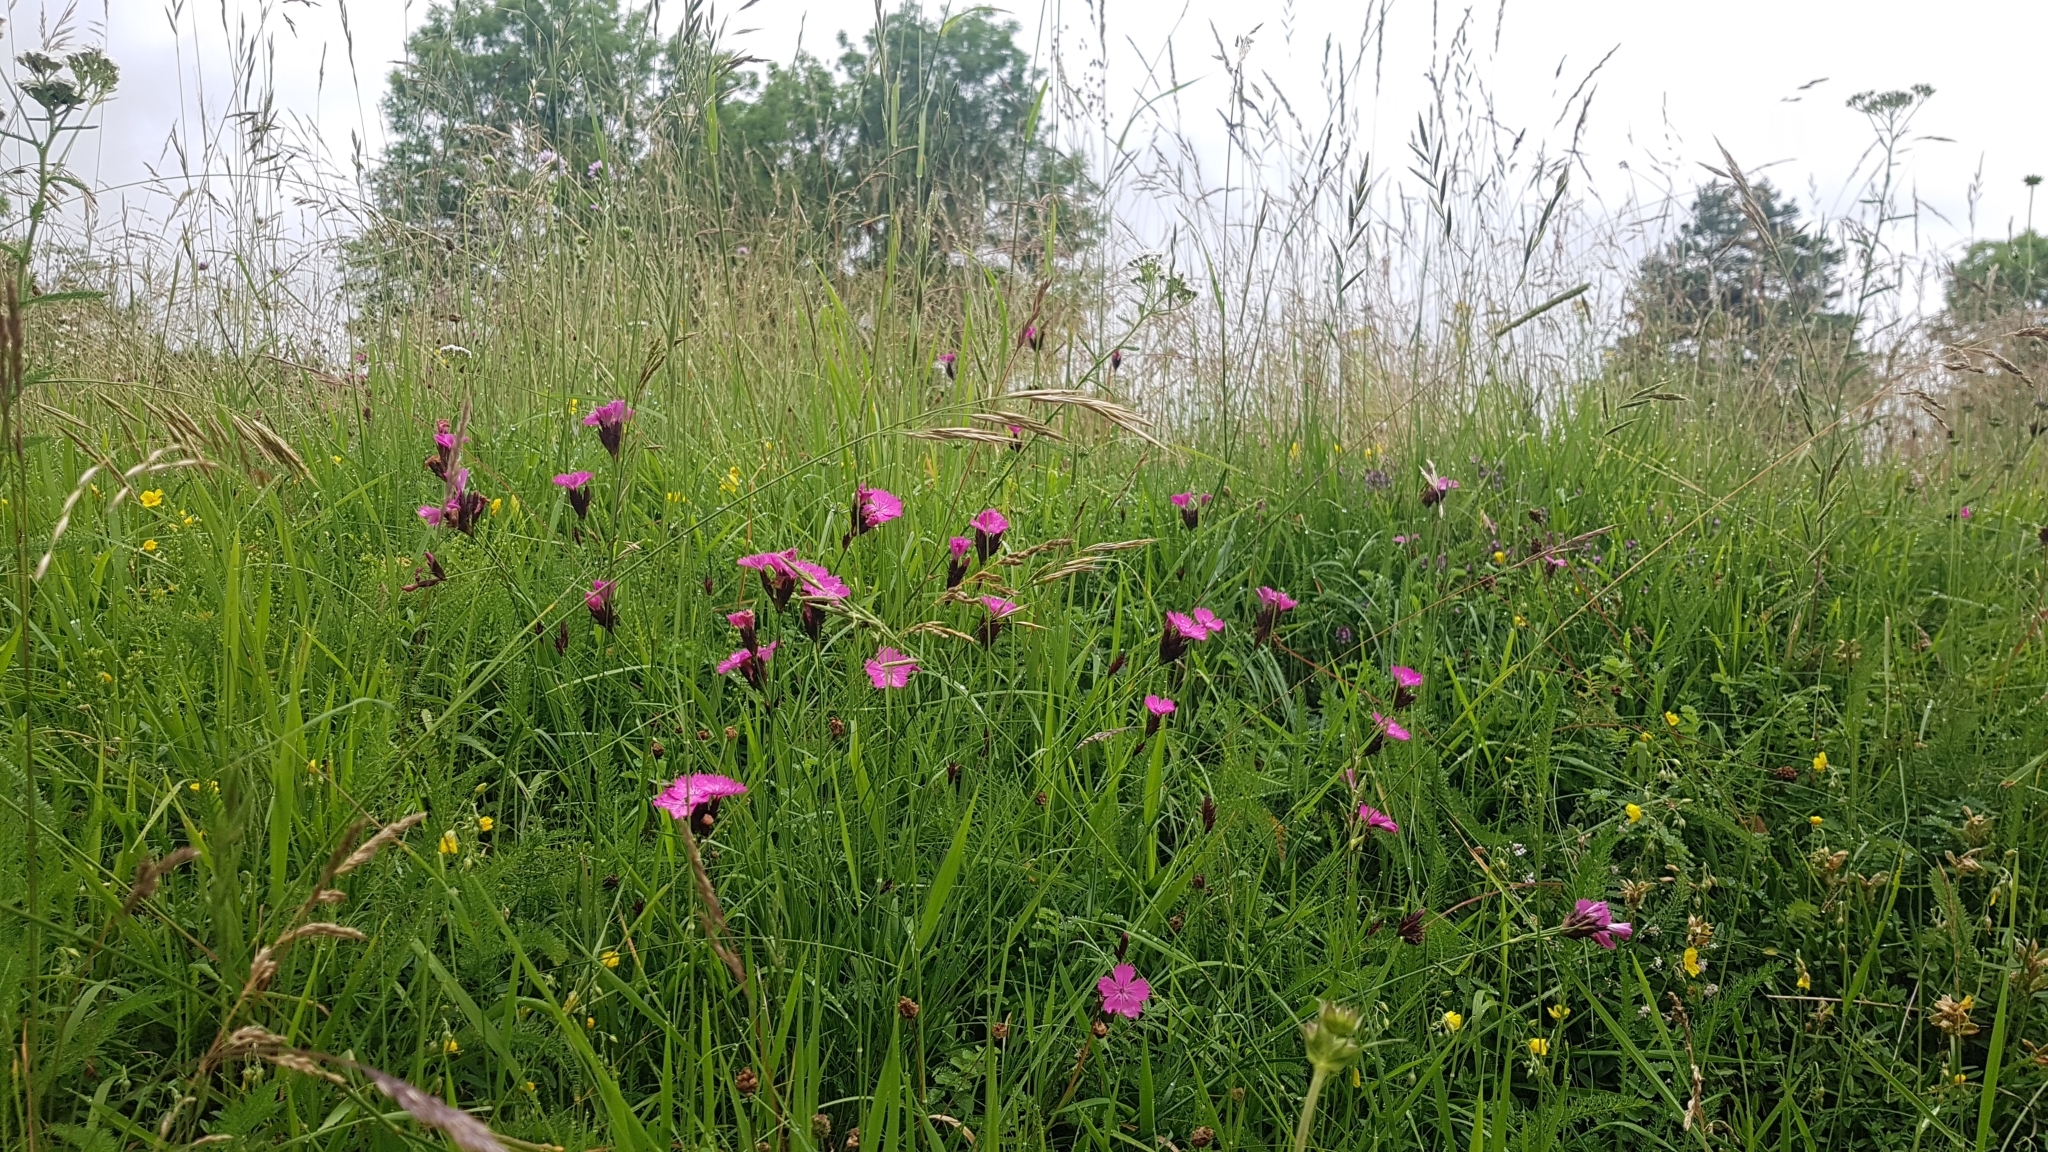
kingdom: Plantae
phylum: Tracheophyta
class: Magnoliopsida
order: Caryophyllales
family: Caryophyllaceae
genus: Dianthus
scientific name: Dianthus carthusianorum
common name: Carthusian pink
